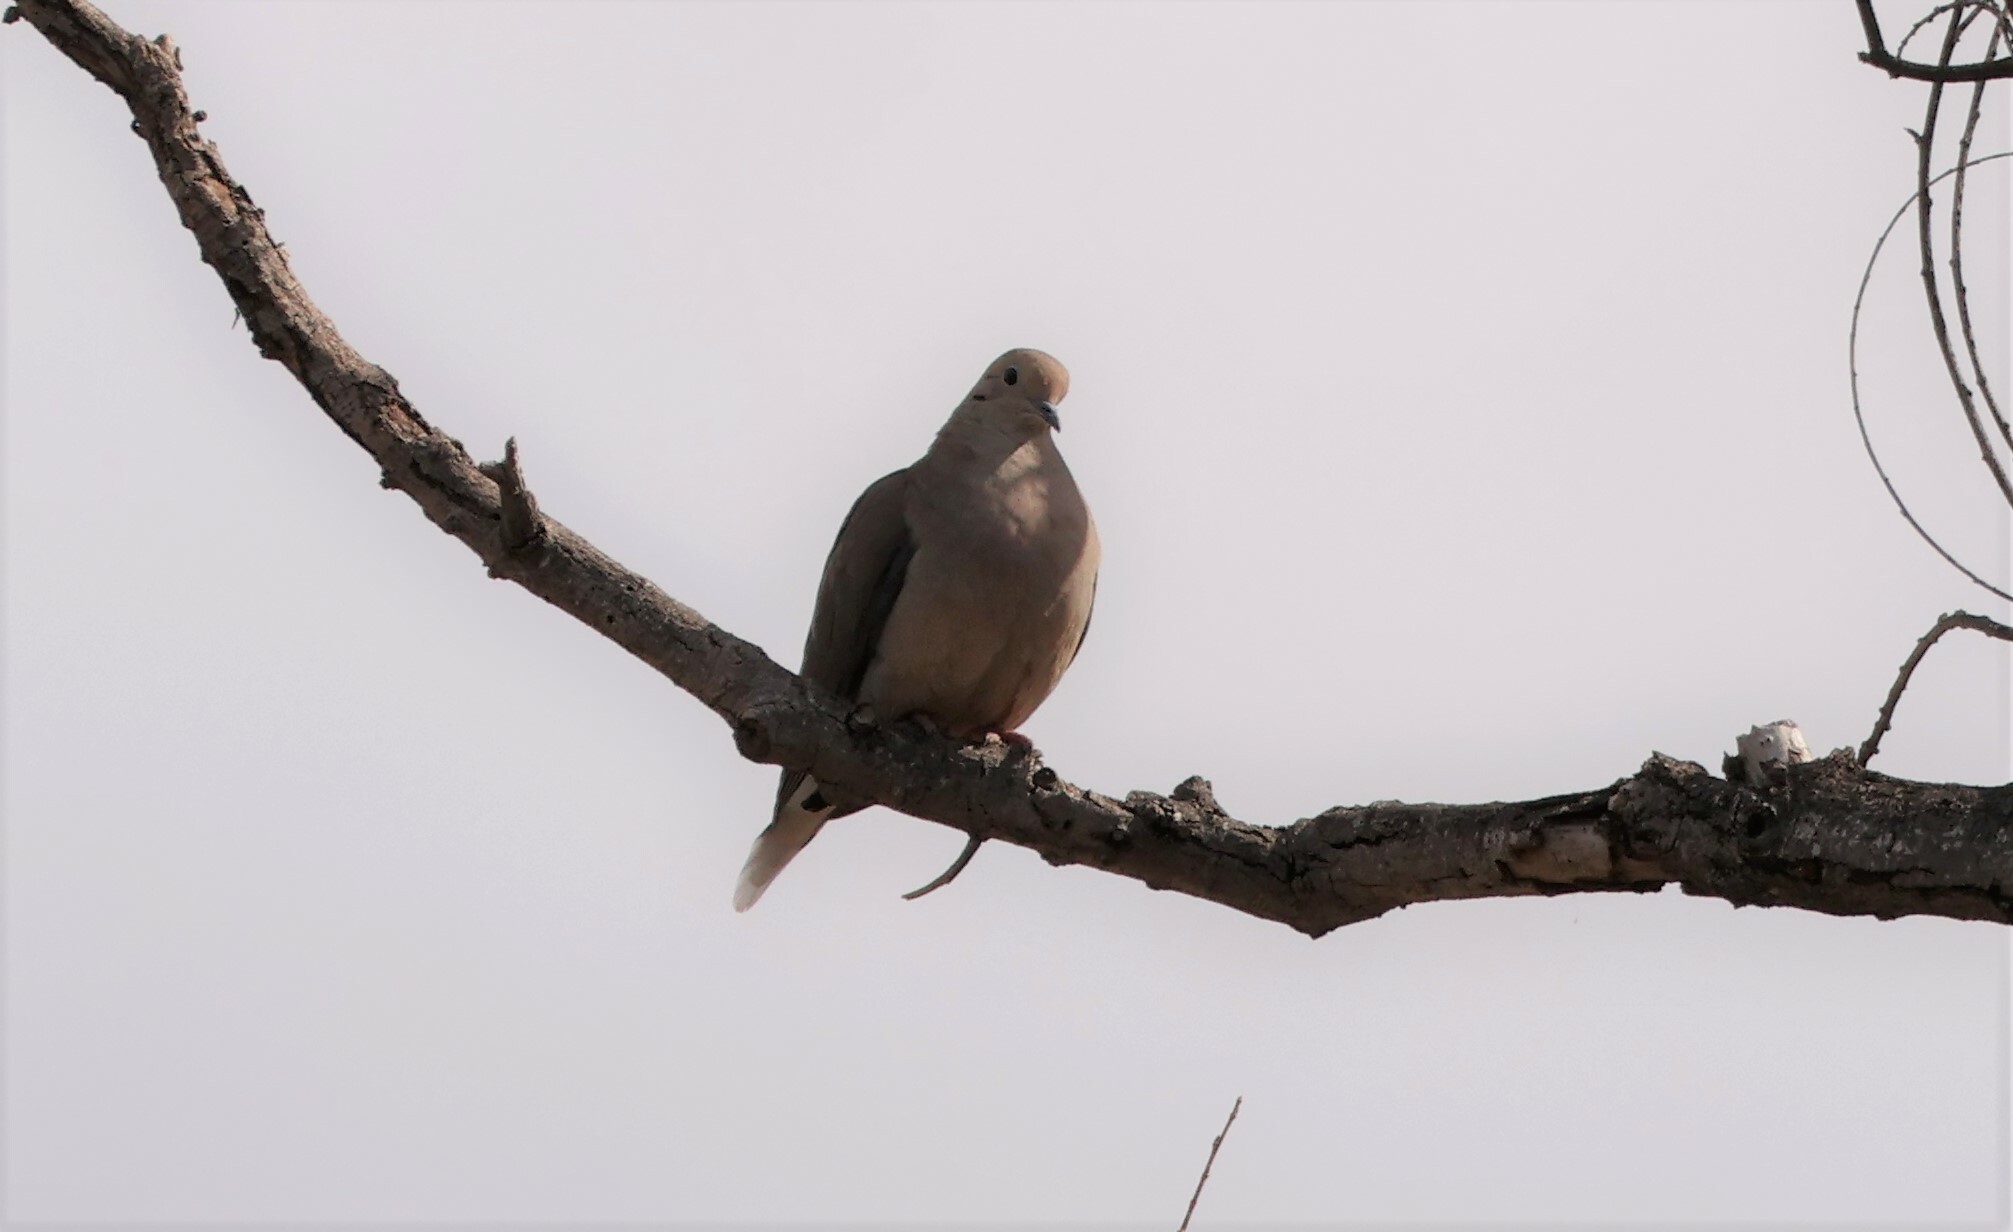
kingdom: Animalia
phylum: Chordata
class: Aves
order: Columbiformes
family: Columbidae
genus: Zenaida
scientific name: Zenaida macroura
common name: Mourning dove
